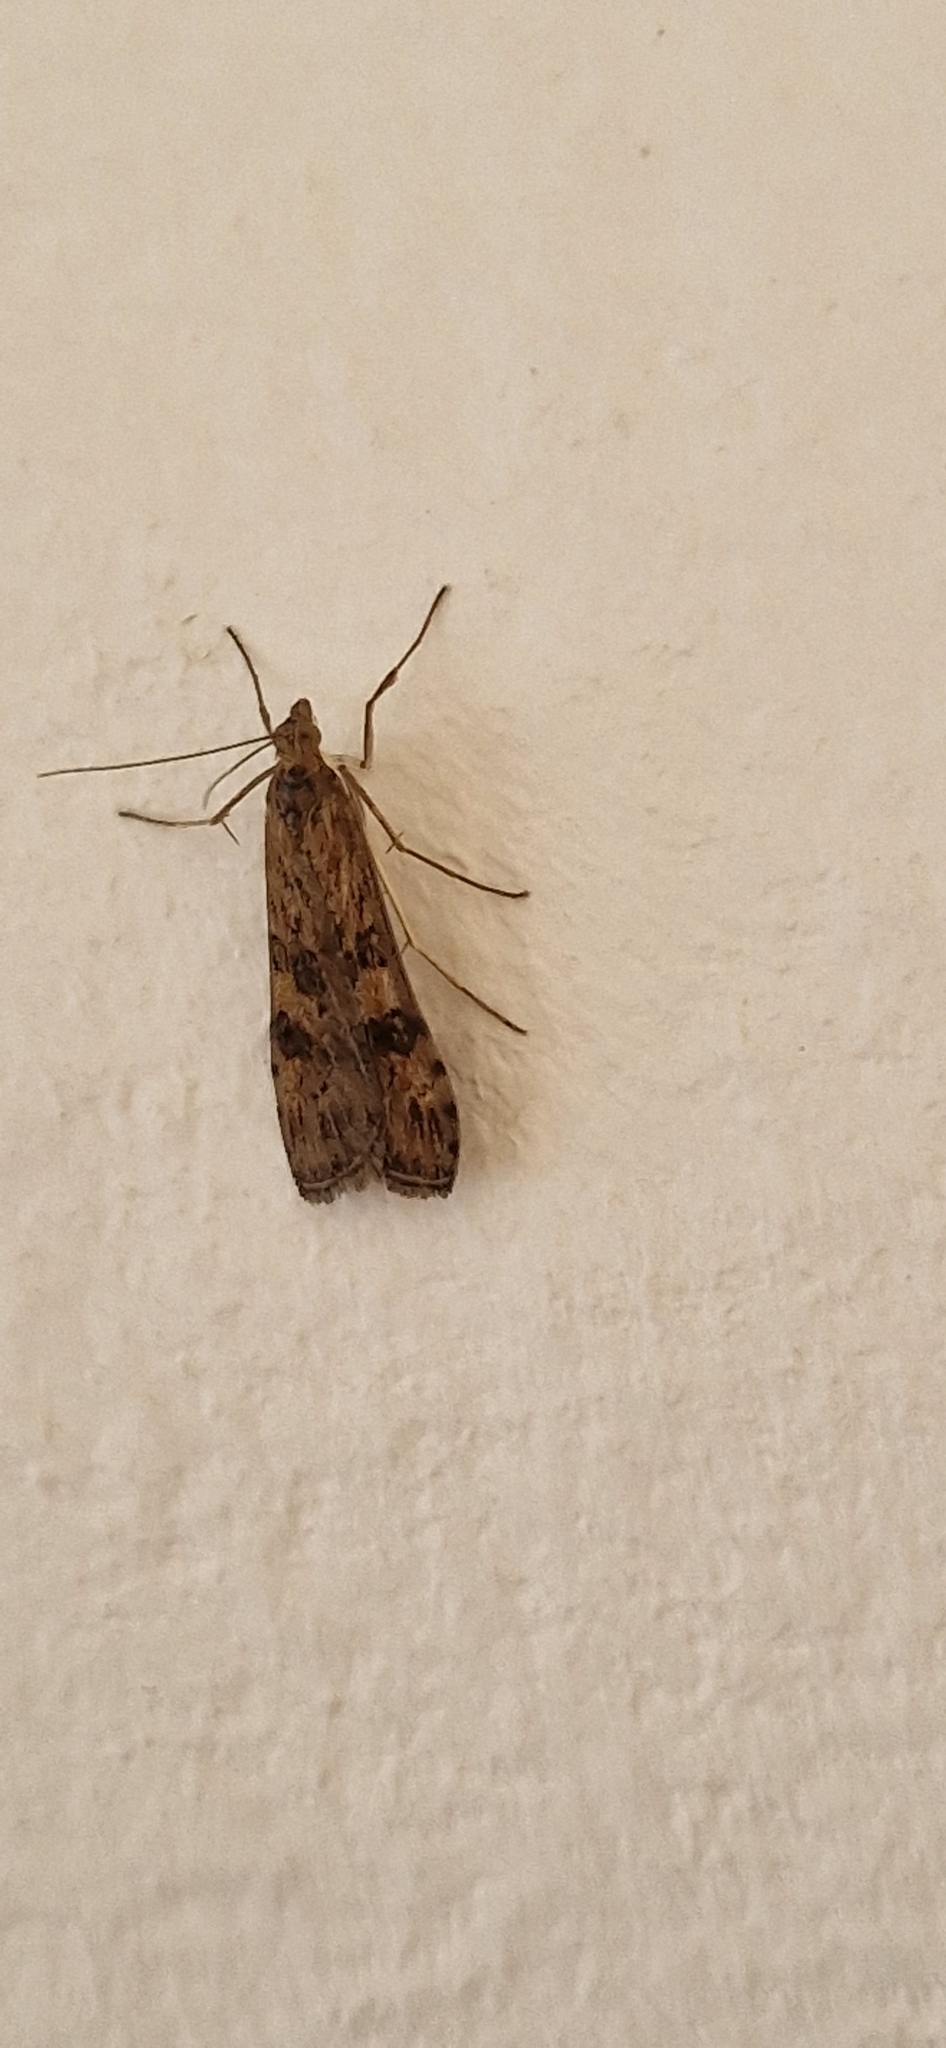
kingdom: Animalia
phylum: Arthropoda
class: Insecta
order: Lepidoptera
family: Crambidae
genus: Nomophila
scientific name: Nomophila noctuella
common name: Rush veneer
